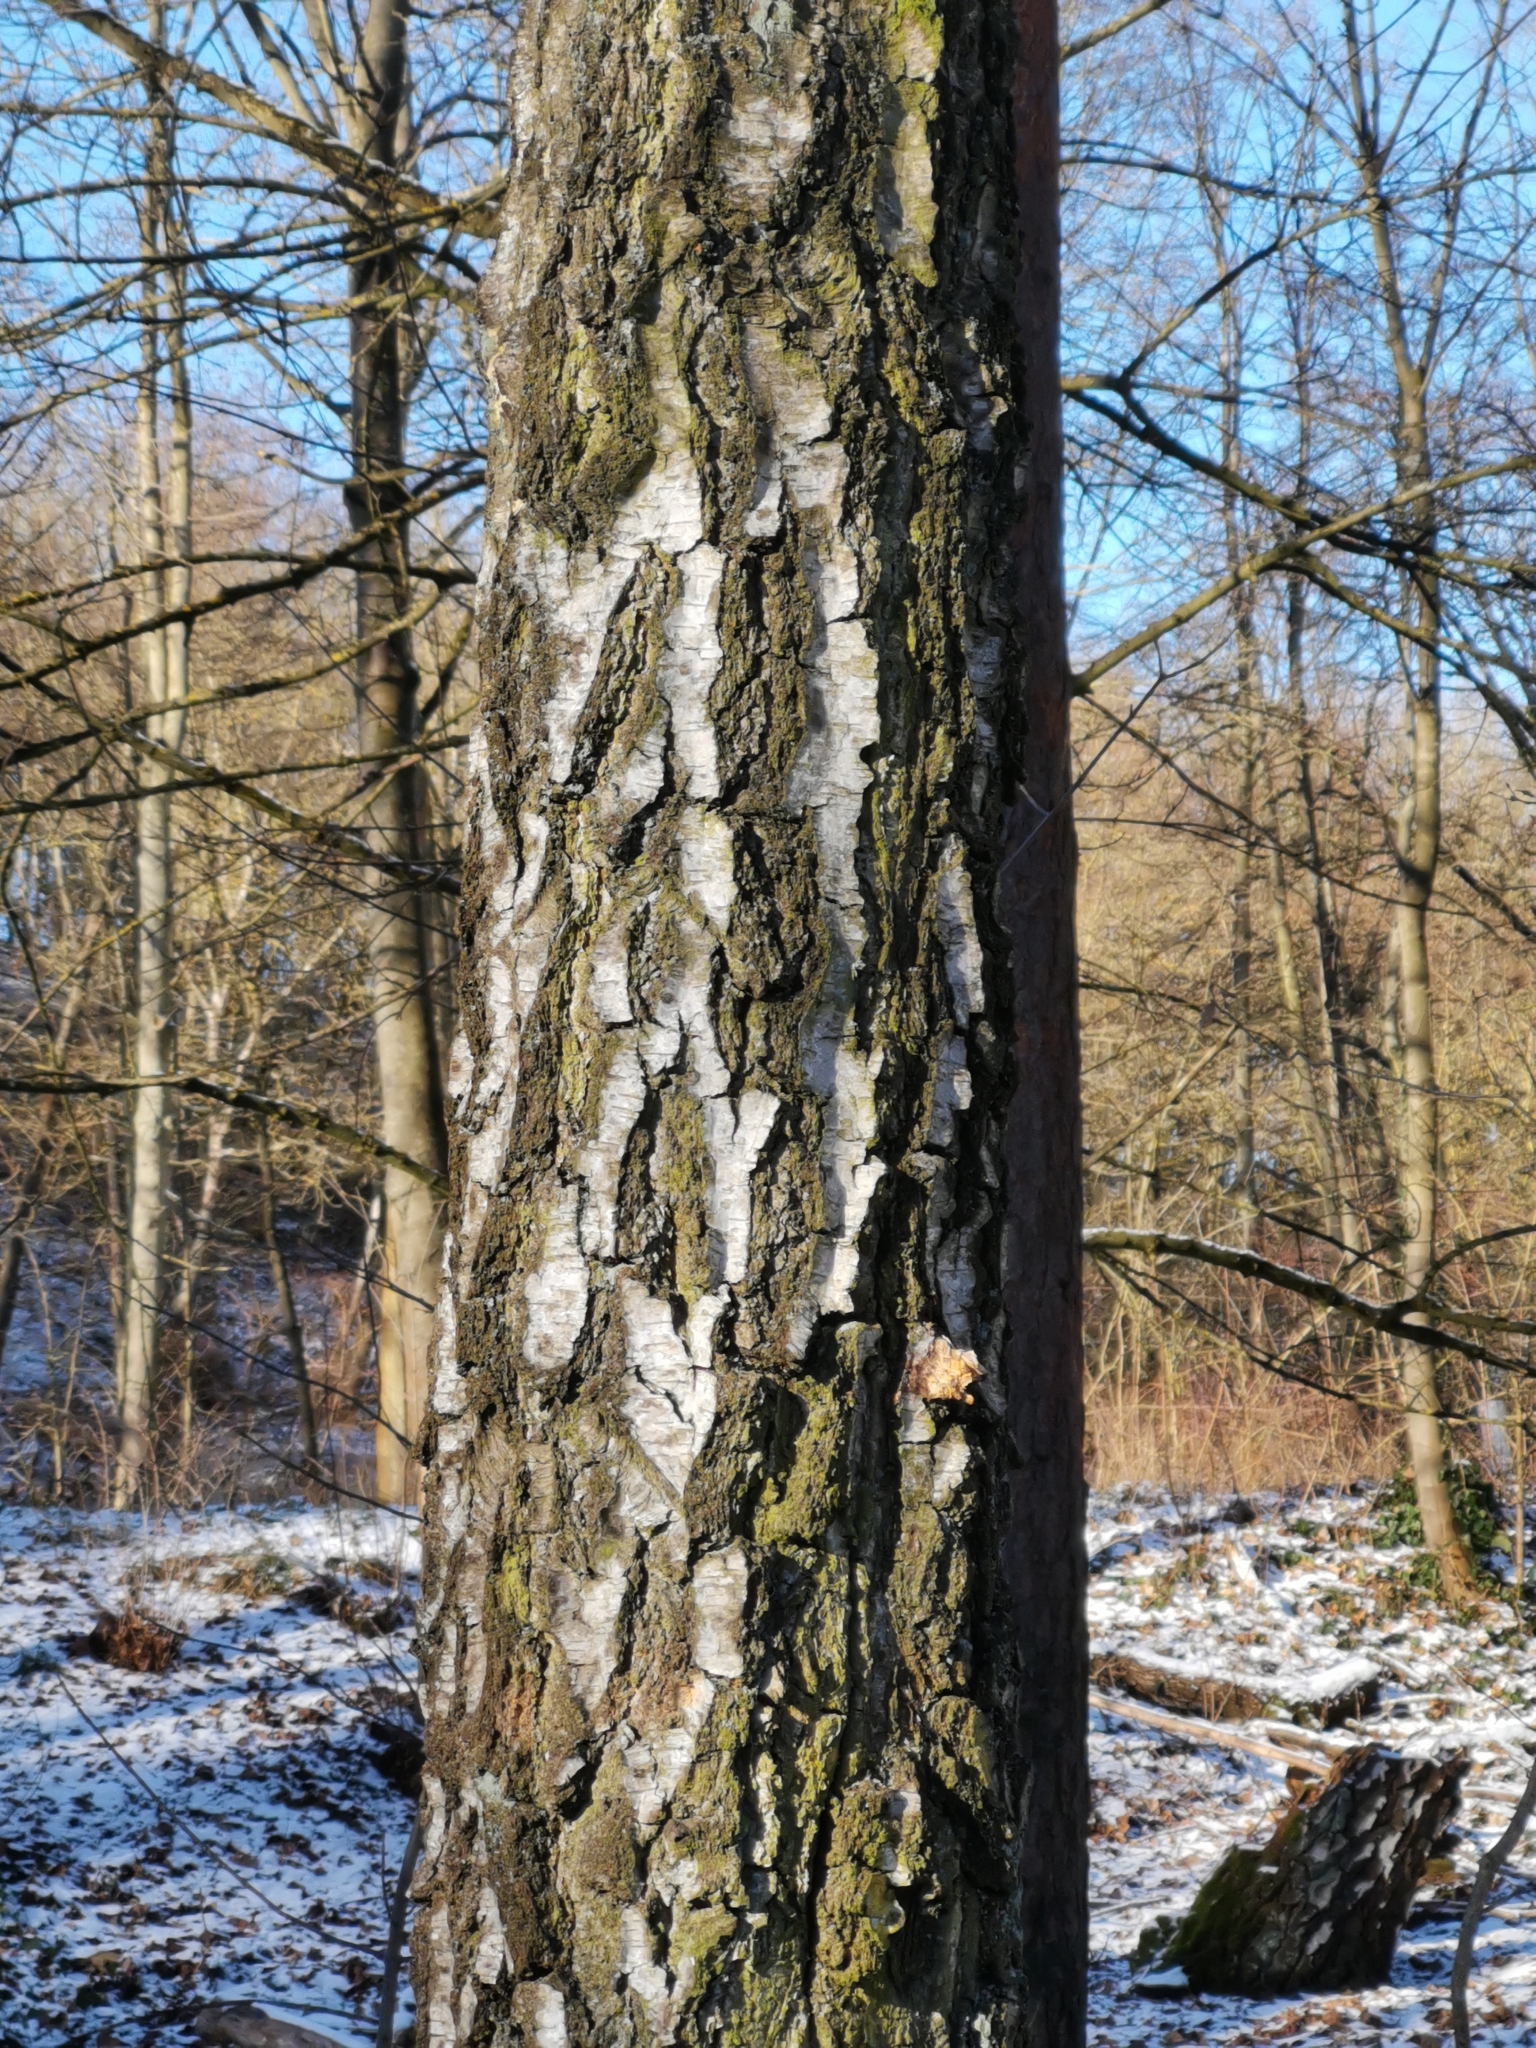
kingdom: Plantae
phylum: Tracheophyta
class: Magnoliopsida
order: Fagales
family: Betulaceae
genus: Betula
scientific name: Betula pendula
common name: Silver birch
